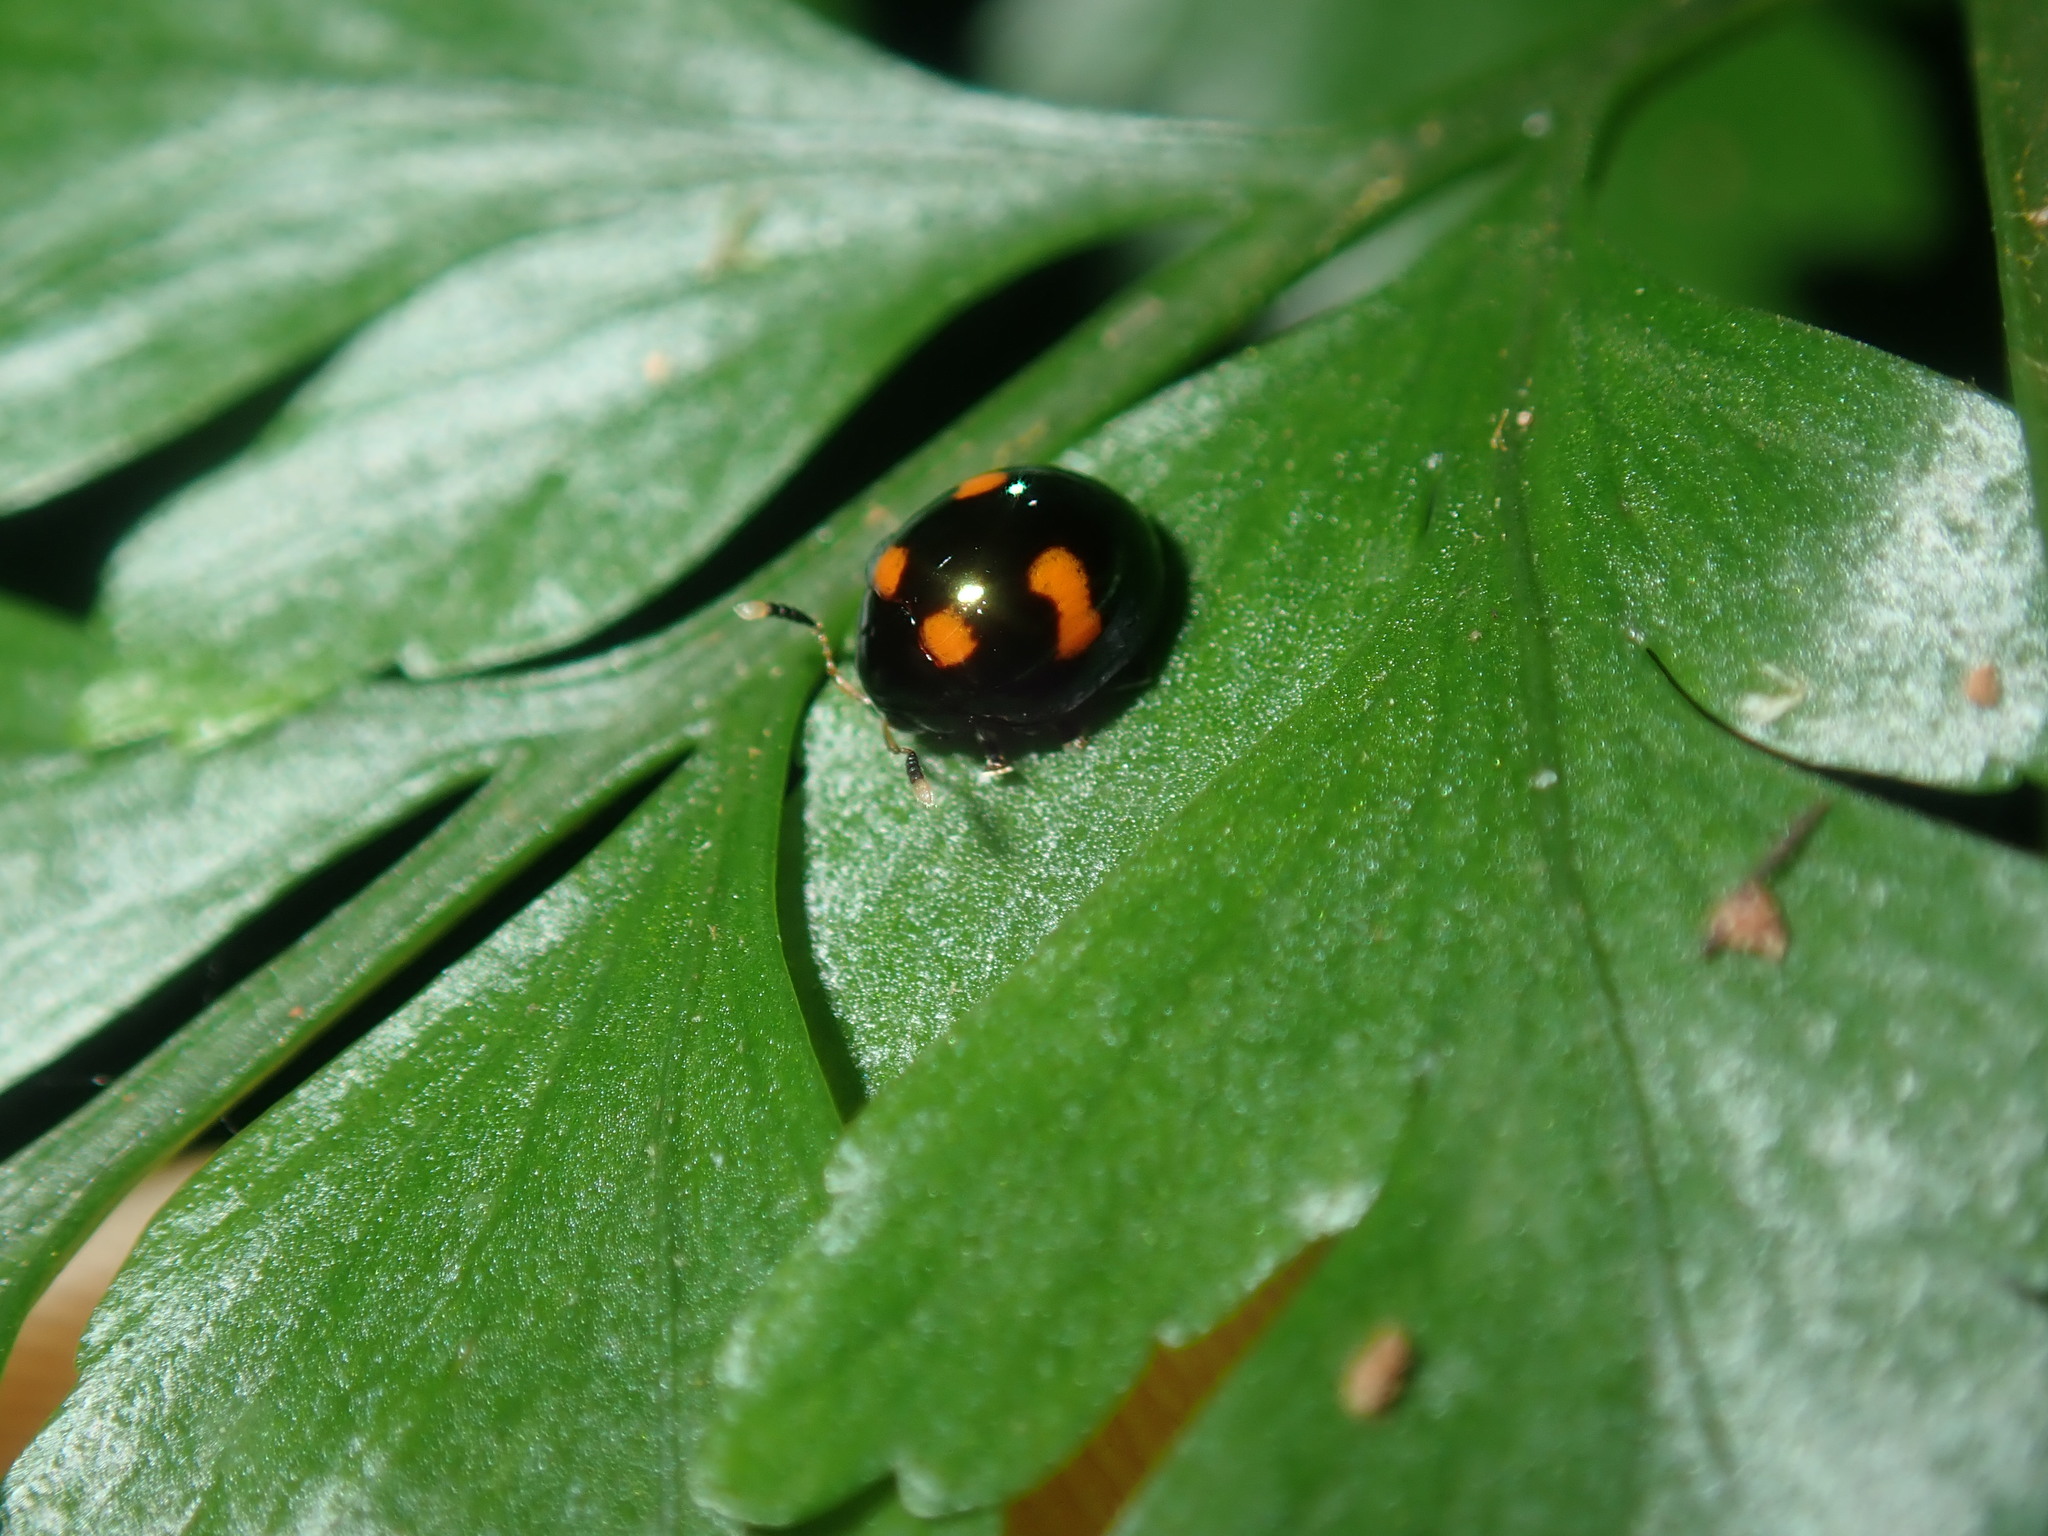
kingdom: Animalia
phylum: Arthropoda
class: Insecta
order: Coleoptera
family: Chrysomelidae
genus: Halticorcus
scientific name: Halticorcus
